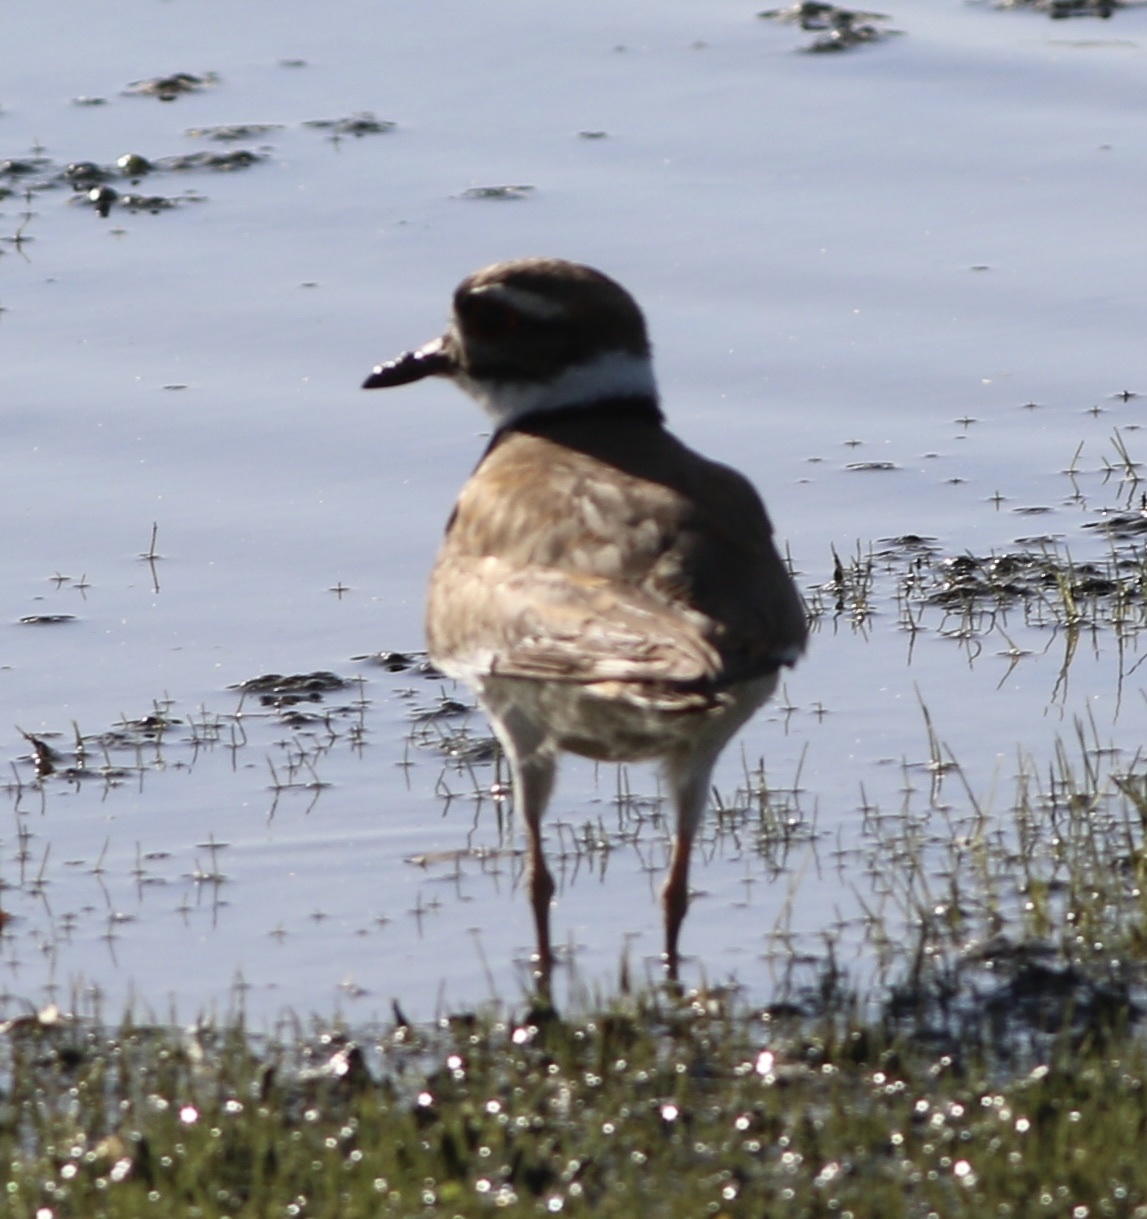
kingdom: Animalia
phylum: Chordata
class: Aves
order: Charadriiformes
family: Charadriidae
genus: Charadrius
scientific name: Charadrius vociferus
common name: Killdeer
